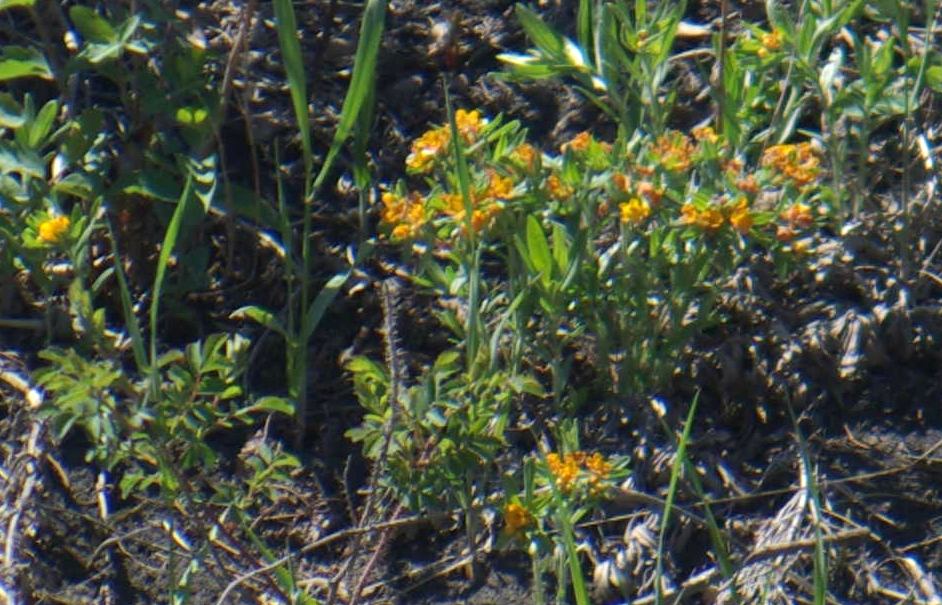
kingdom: Plantae
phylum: Tracheophyta
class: Magnoliopsida
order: Boraginales
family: Boraginaceae
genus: Lithospermum
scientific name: Lithospermum canescens
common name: Hoary puccoon
